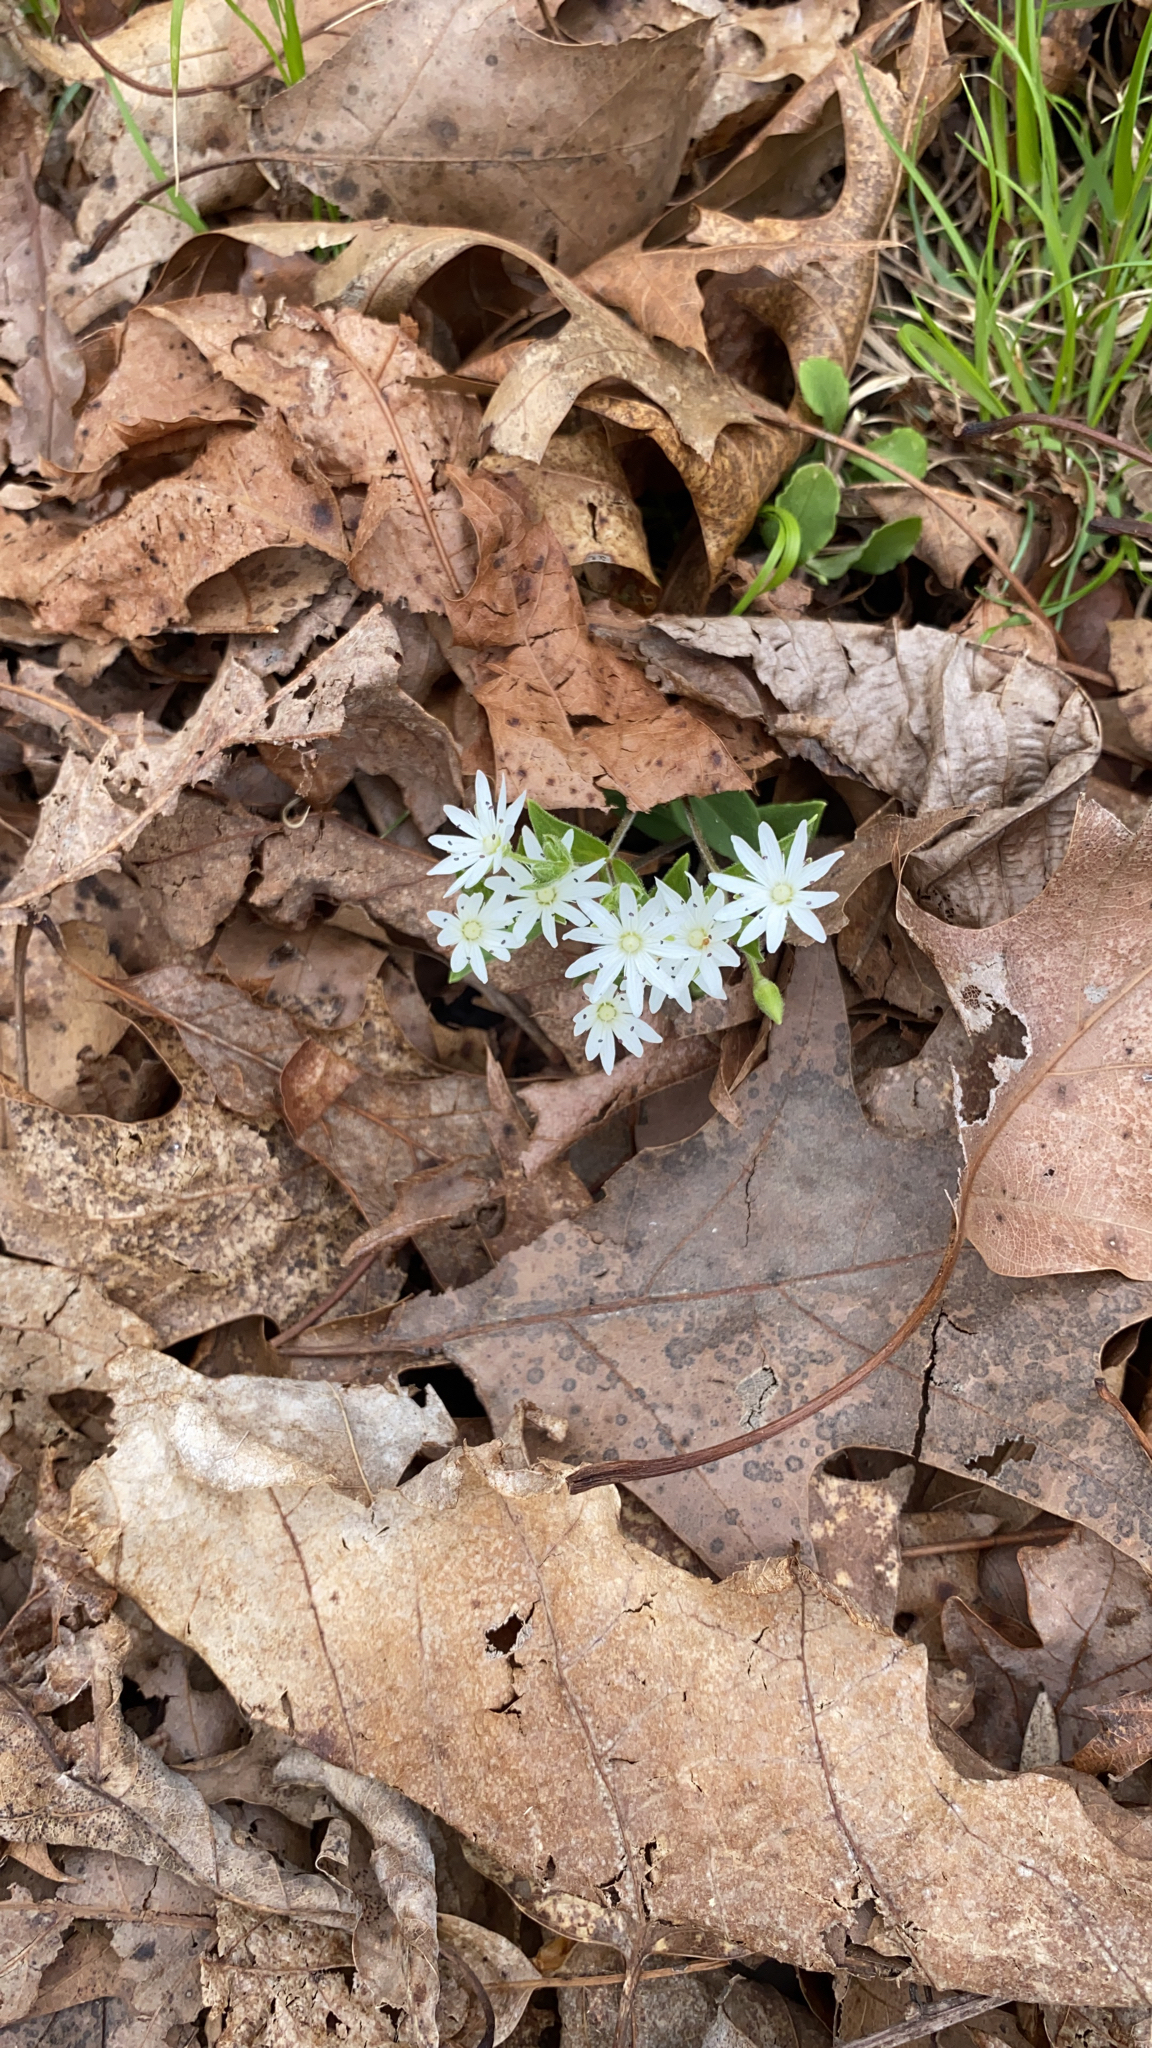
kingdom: Plantae
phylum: Tracheophyta
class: Magnoliopsida
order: Caryophyllales
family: Caryophyllaceae
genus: Stellaria
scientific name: Stellaria pubera
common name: Star chickweed
